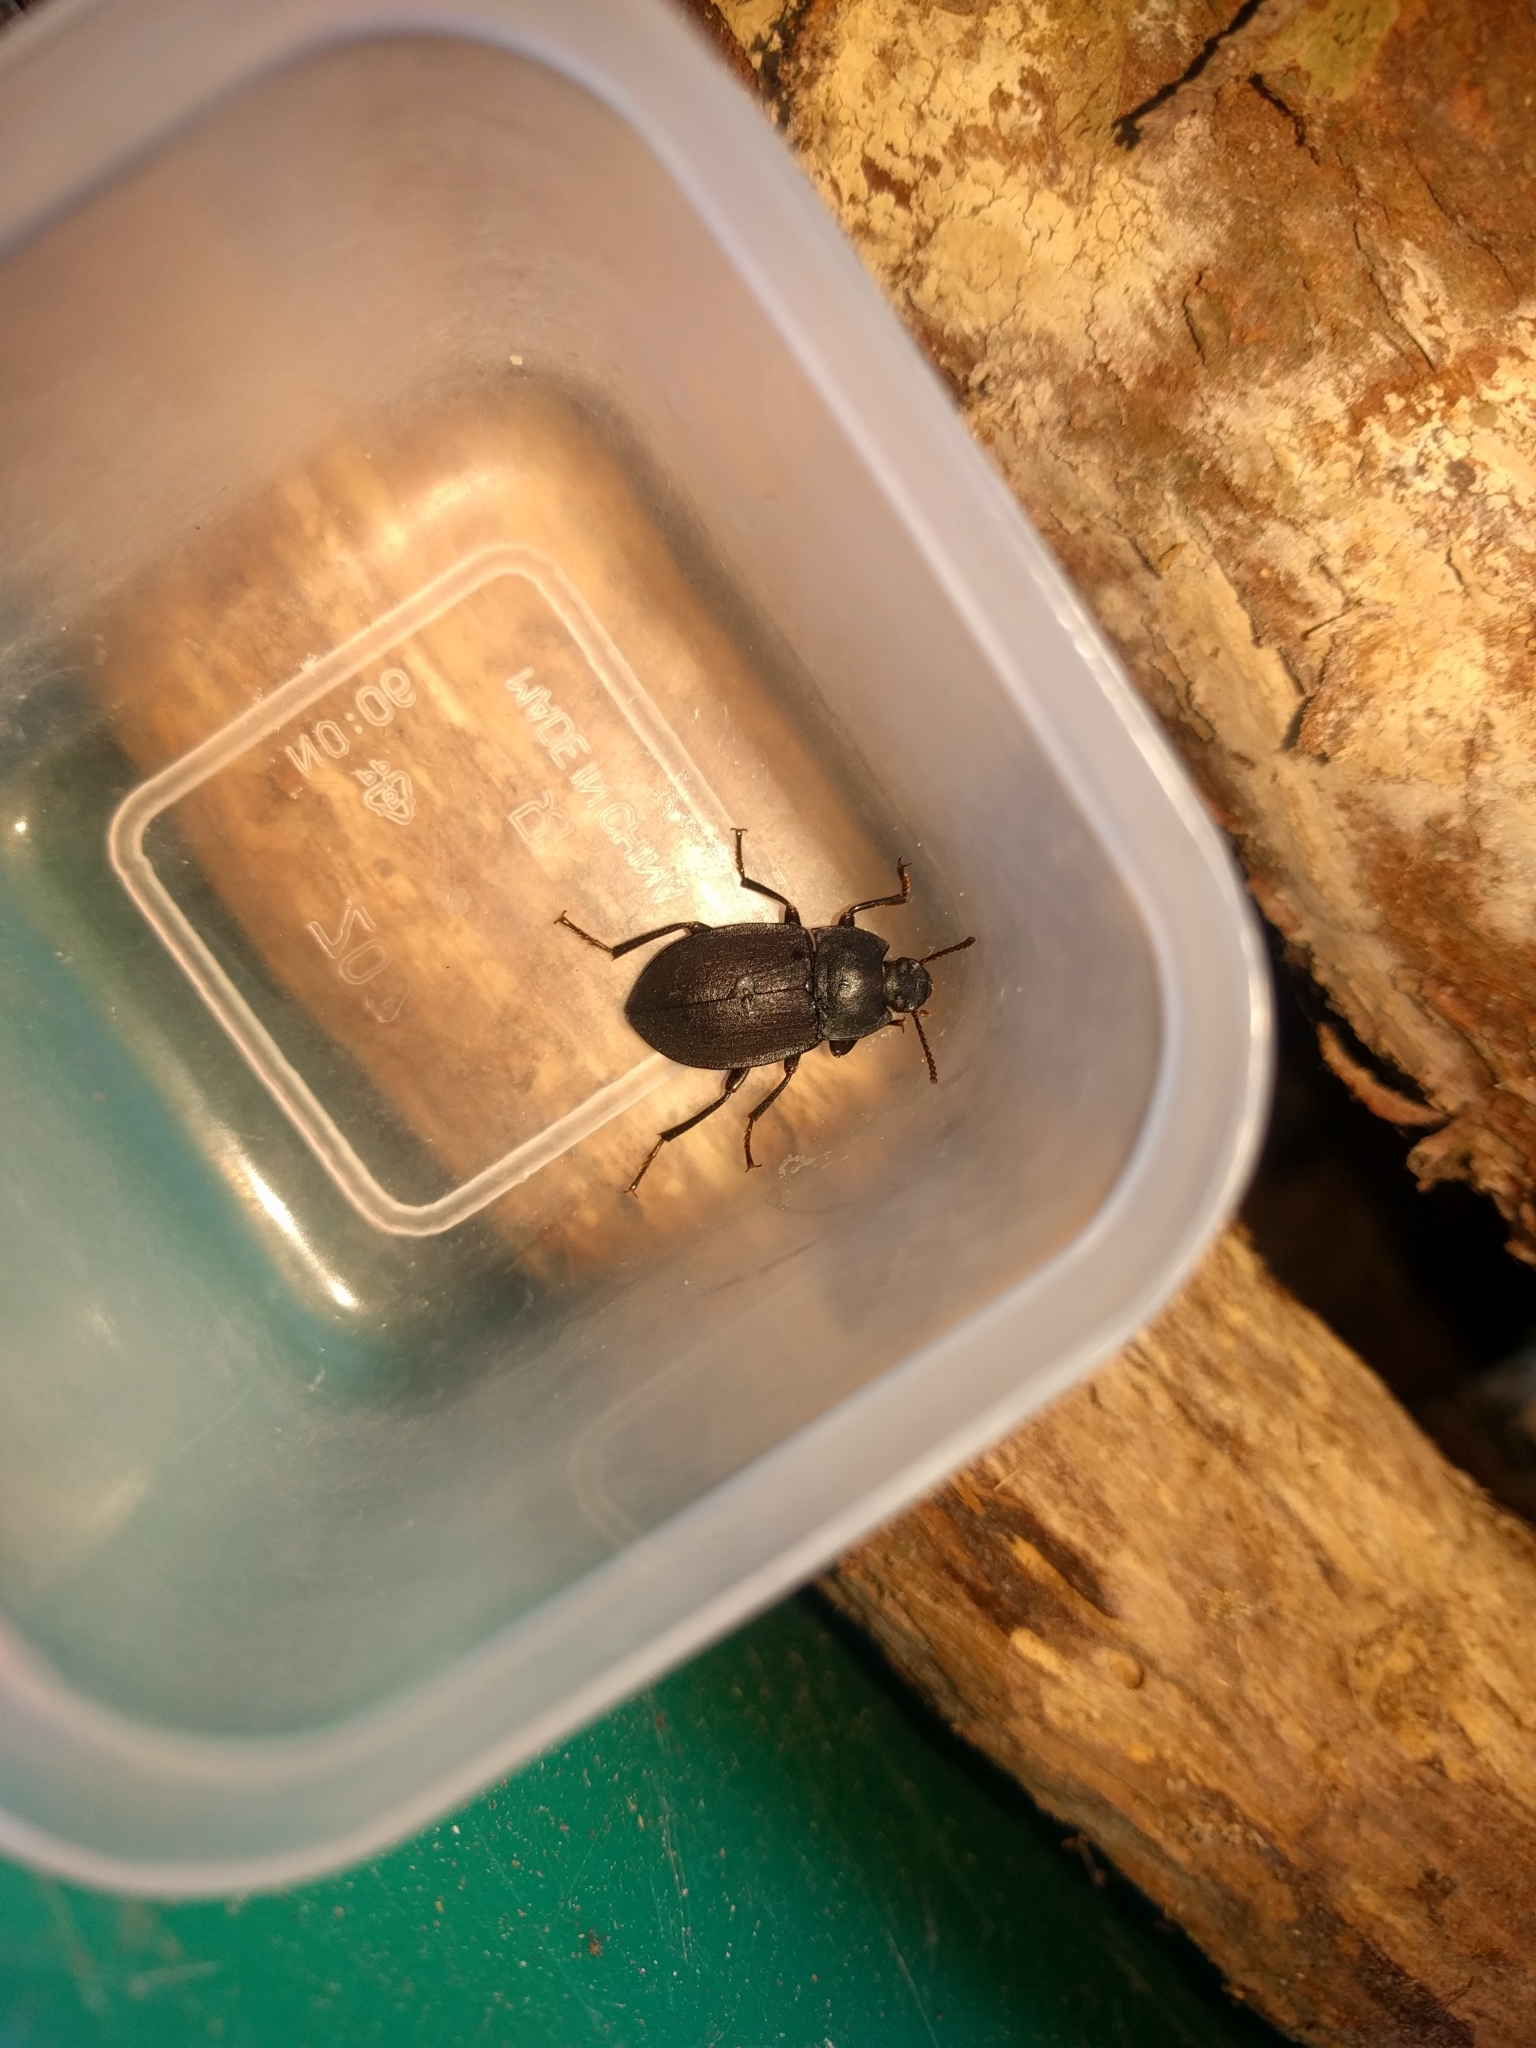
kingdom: Animalia
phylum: Arthropoda
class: Insecta
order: Coleoptera
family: Tenebrionidae
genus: Mimopeus
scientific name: Mimopeus
